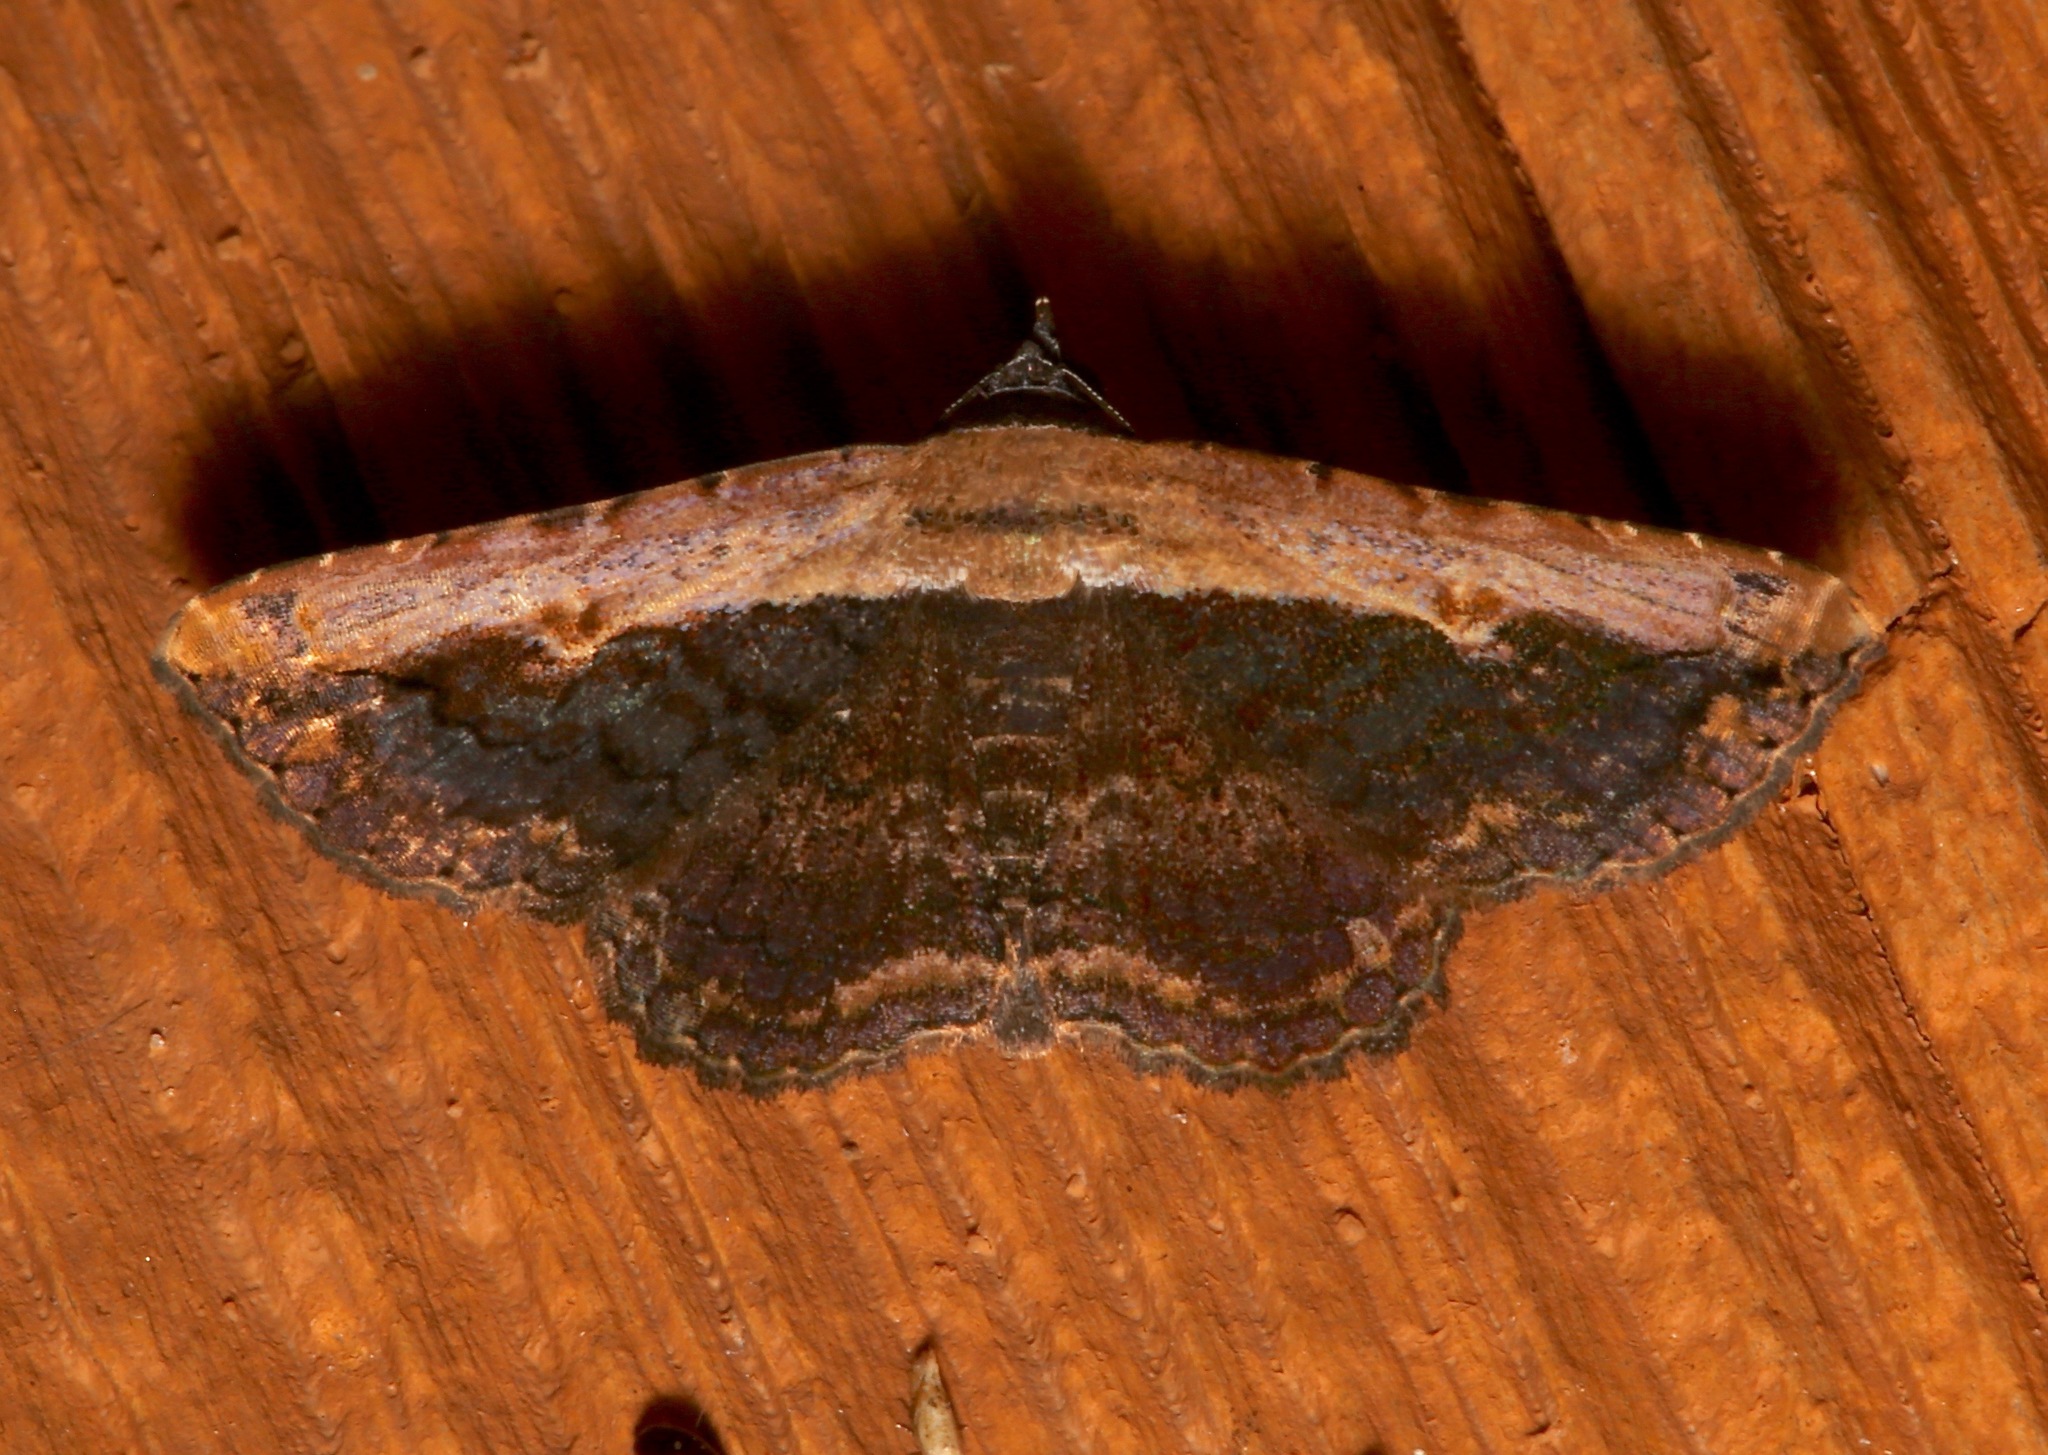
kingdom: Animalia
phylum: Arthropoda
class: Insecta
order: Lepidoptera
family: Erebidae
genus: Selenisa
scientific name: Selenisa sueroides
